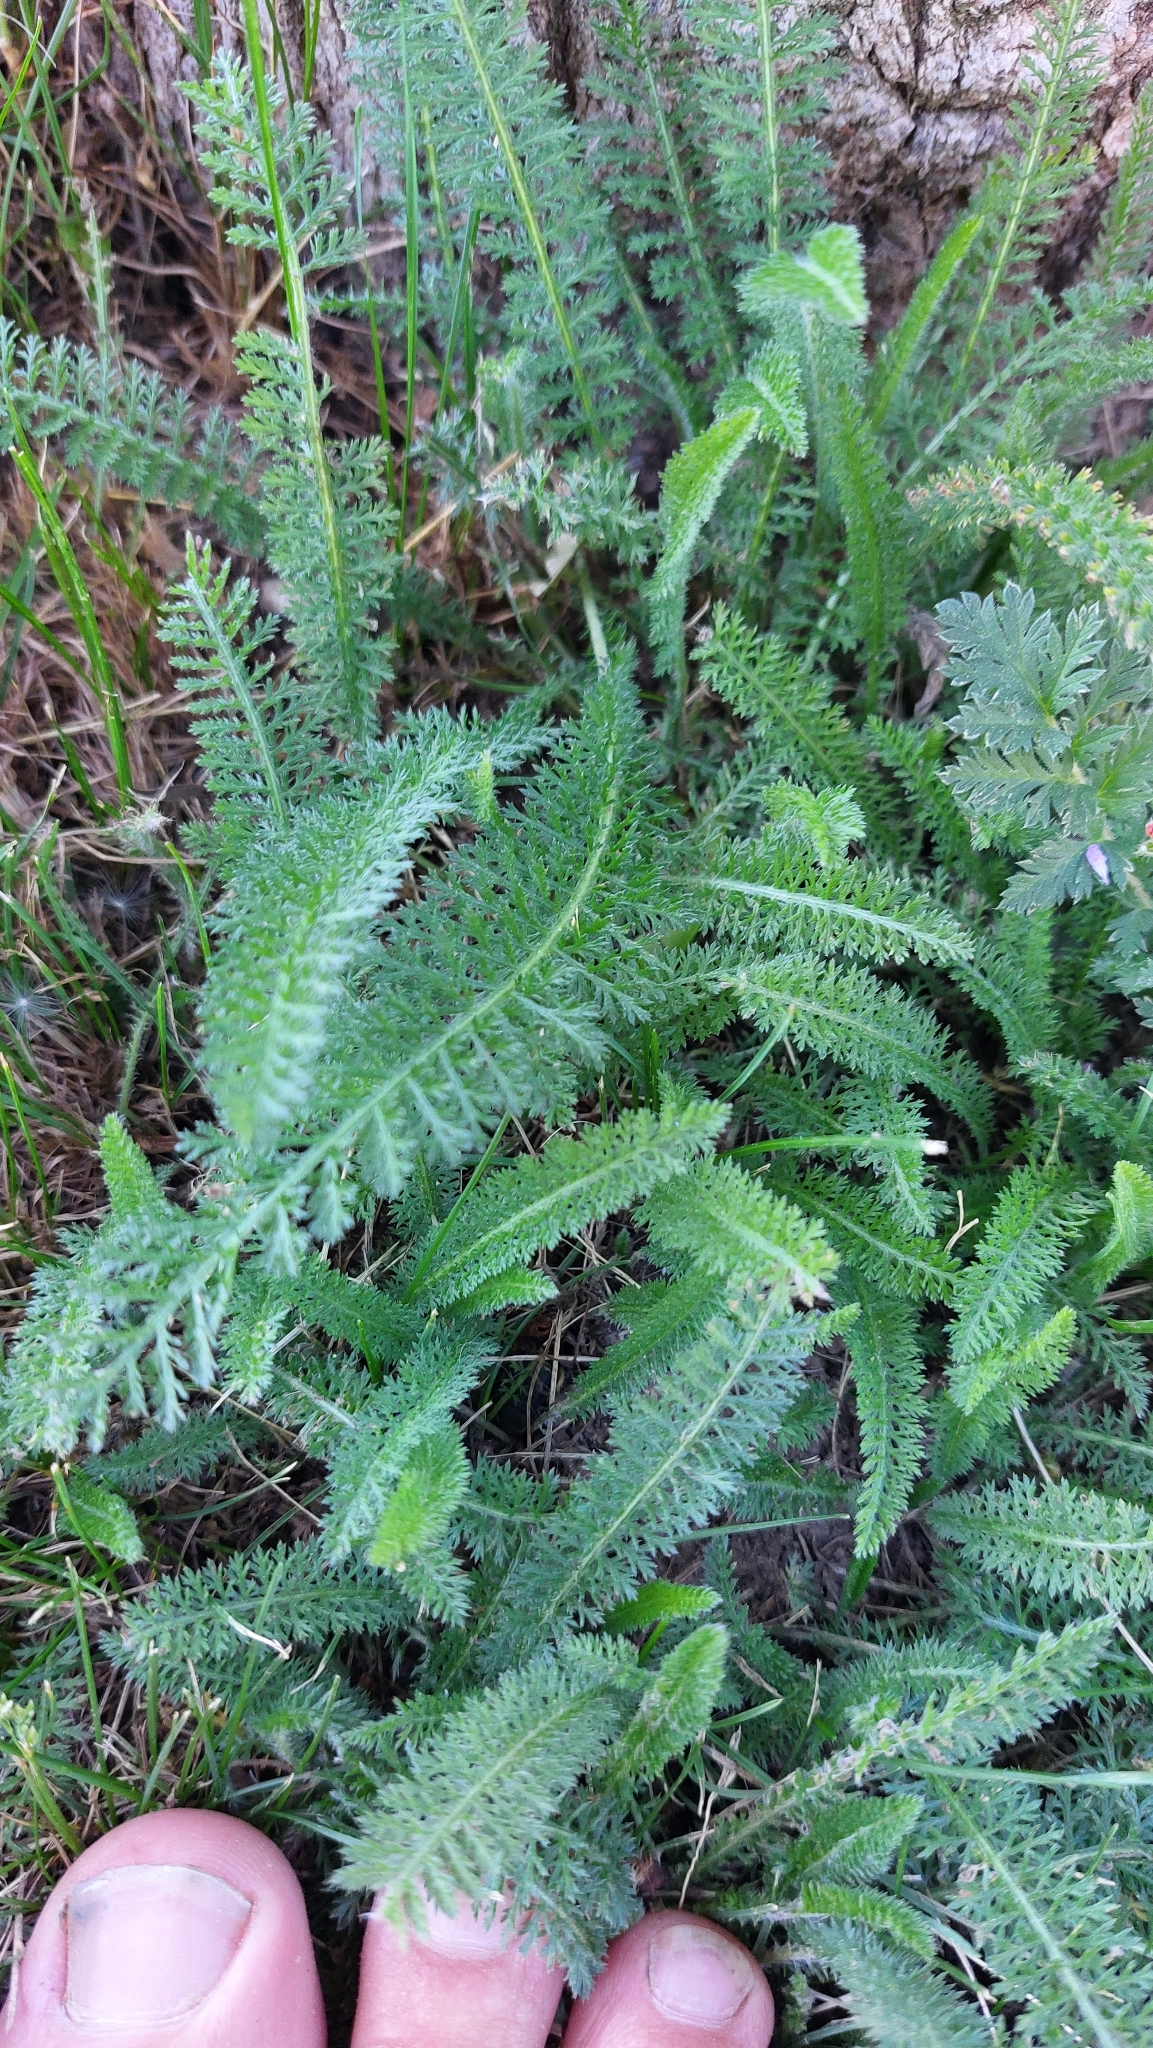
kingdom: Plantae
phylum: Tracheophyta
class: Magnoliopsida
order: Asterales
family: Asteraceae
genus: Achillea
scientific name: Achillea millefolium
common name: Yarrow
